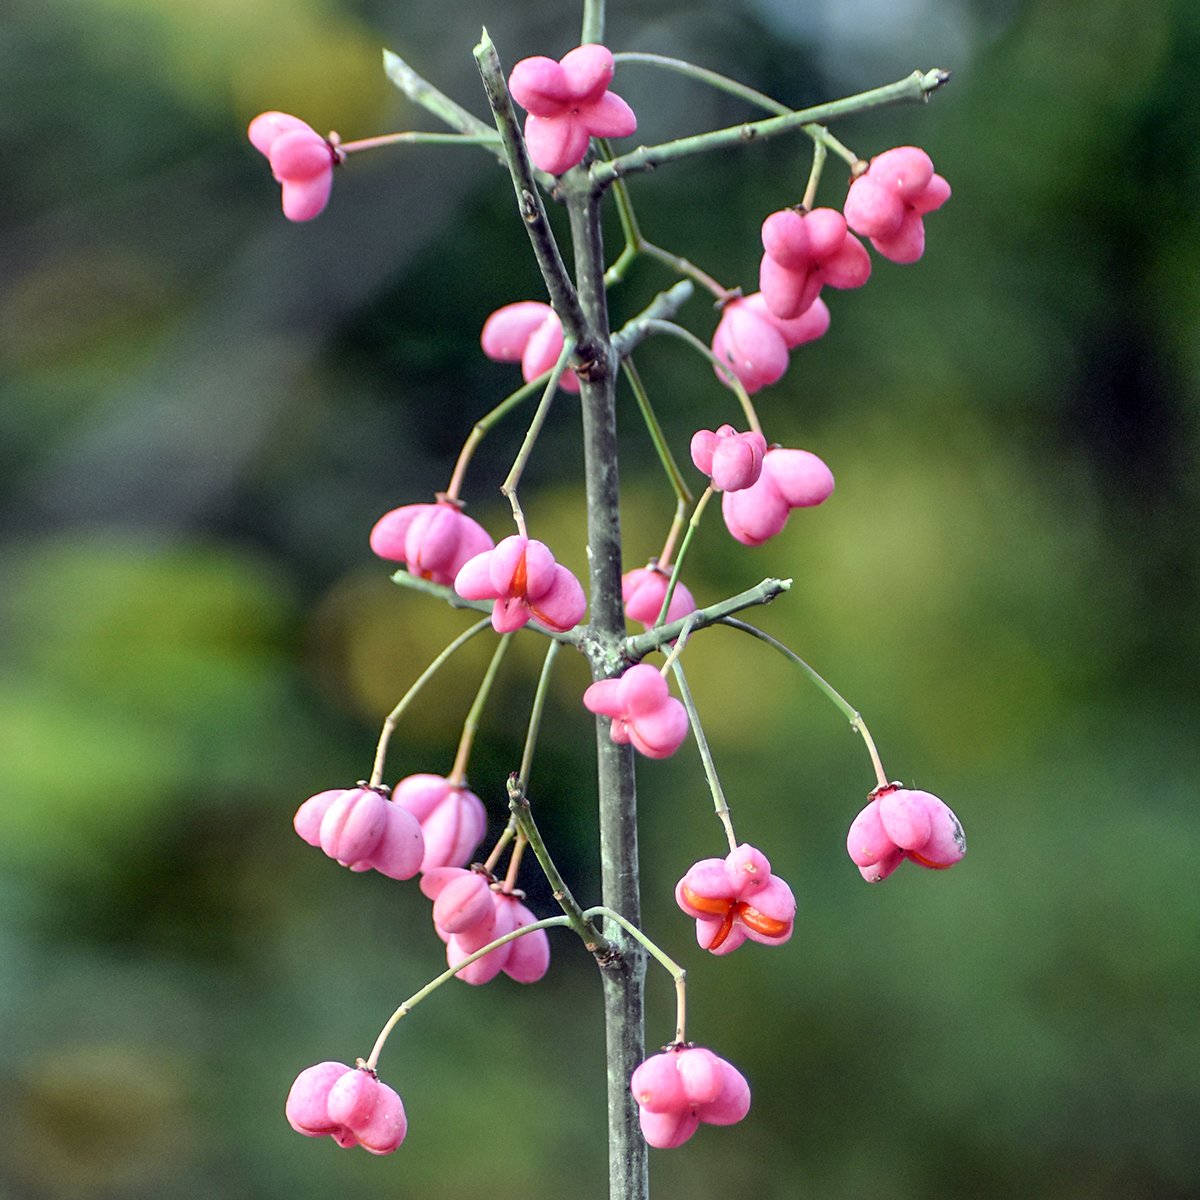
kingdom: Plantae
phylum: Tracheophyta
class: Magnoliopsida
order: Celastrales
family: Celastraceae
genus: Euonymus
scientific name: Euonymus europaeus
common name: Spindle
